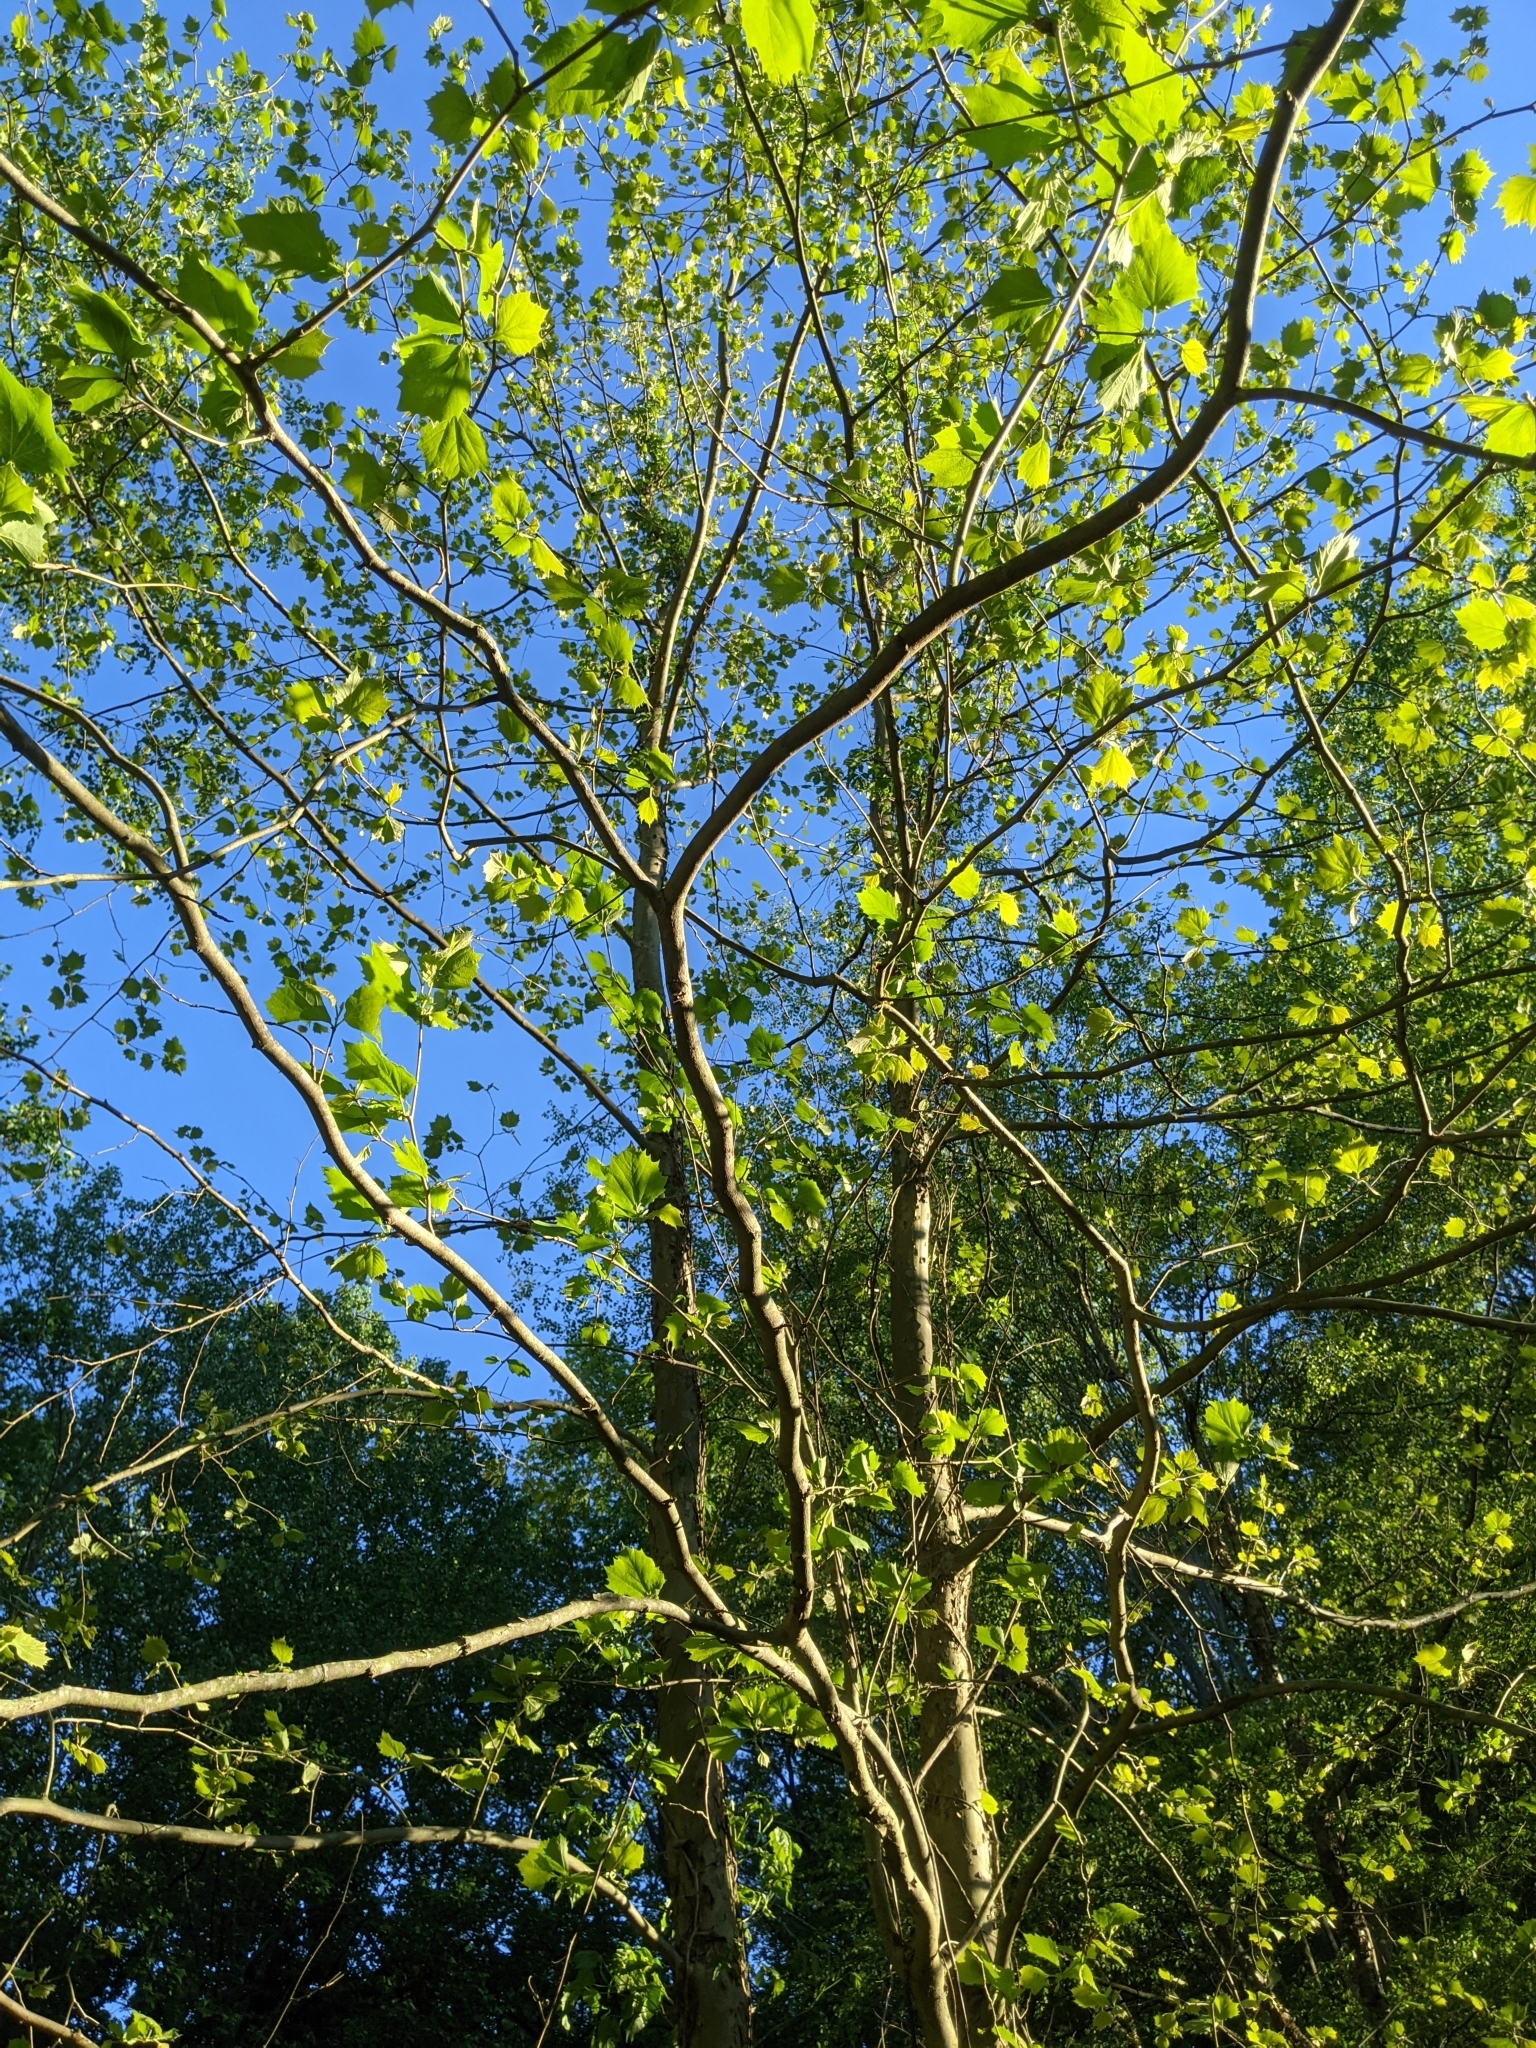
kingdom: Plantae
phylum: Tracheophyta
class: Magnoliopsida
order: Proteales
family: Platanaceae
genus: Platanus
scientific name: Platanus occidentalis
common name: American sycamore
